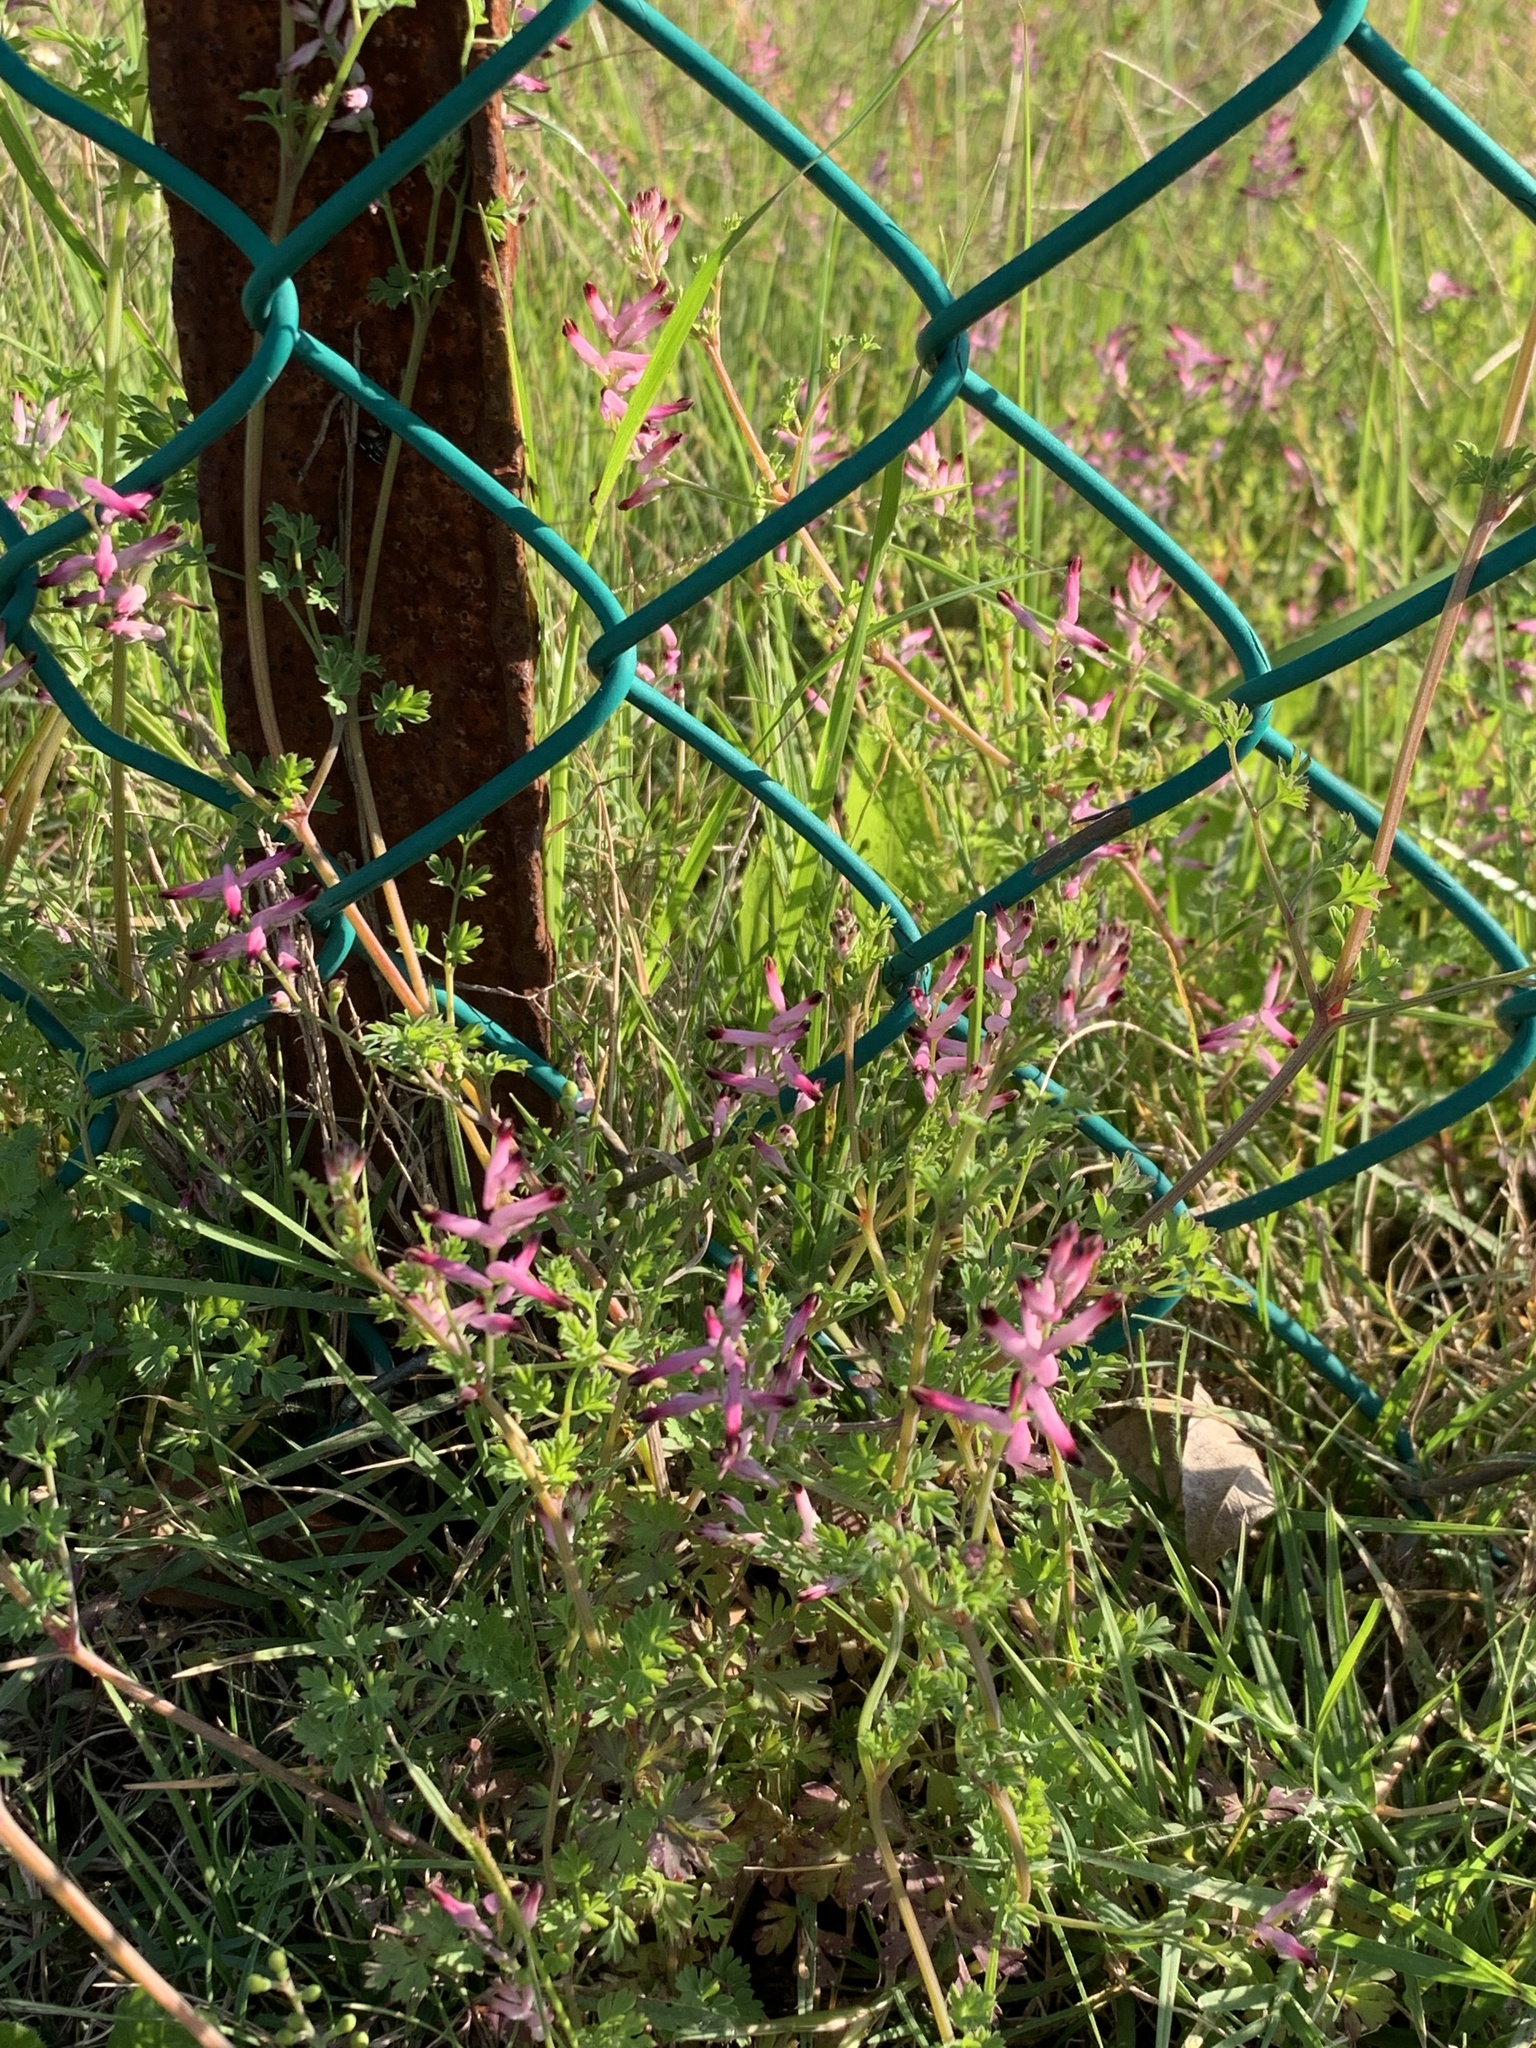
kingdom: Plantae
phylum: Tracheophyta
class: Magnoliopsida
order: Ranunculales
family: Papaveraceae
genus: Fumaria
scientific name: Fumaria muralis
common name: Common ramping-fumitory
